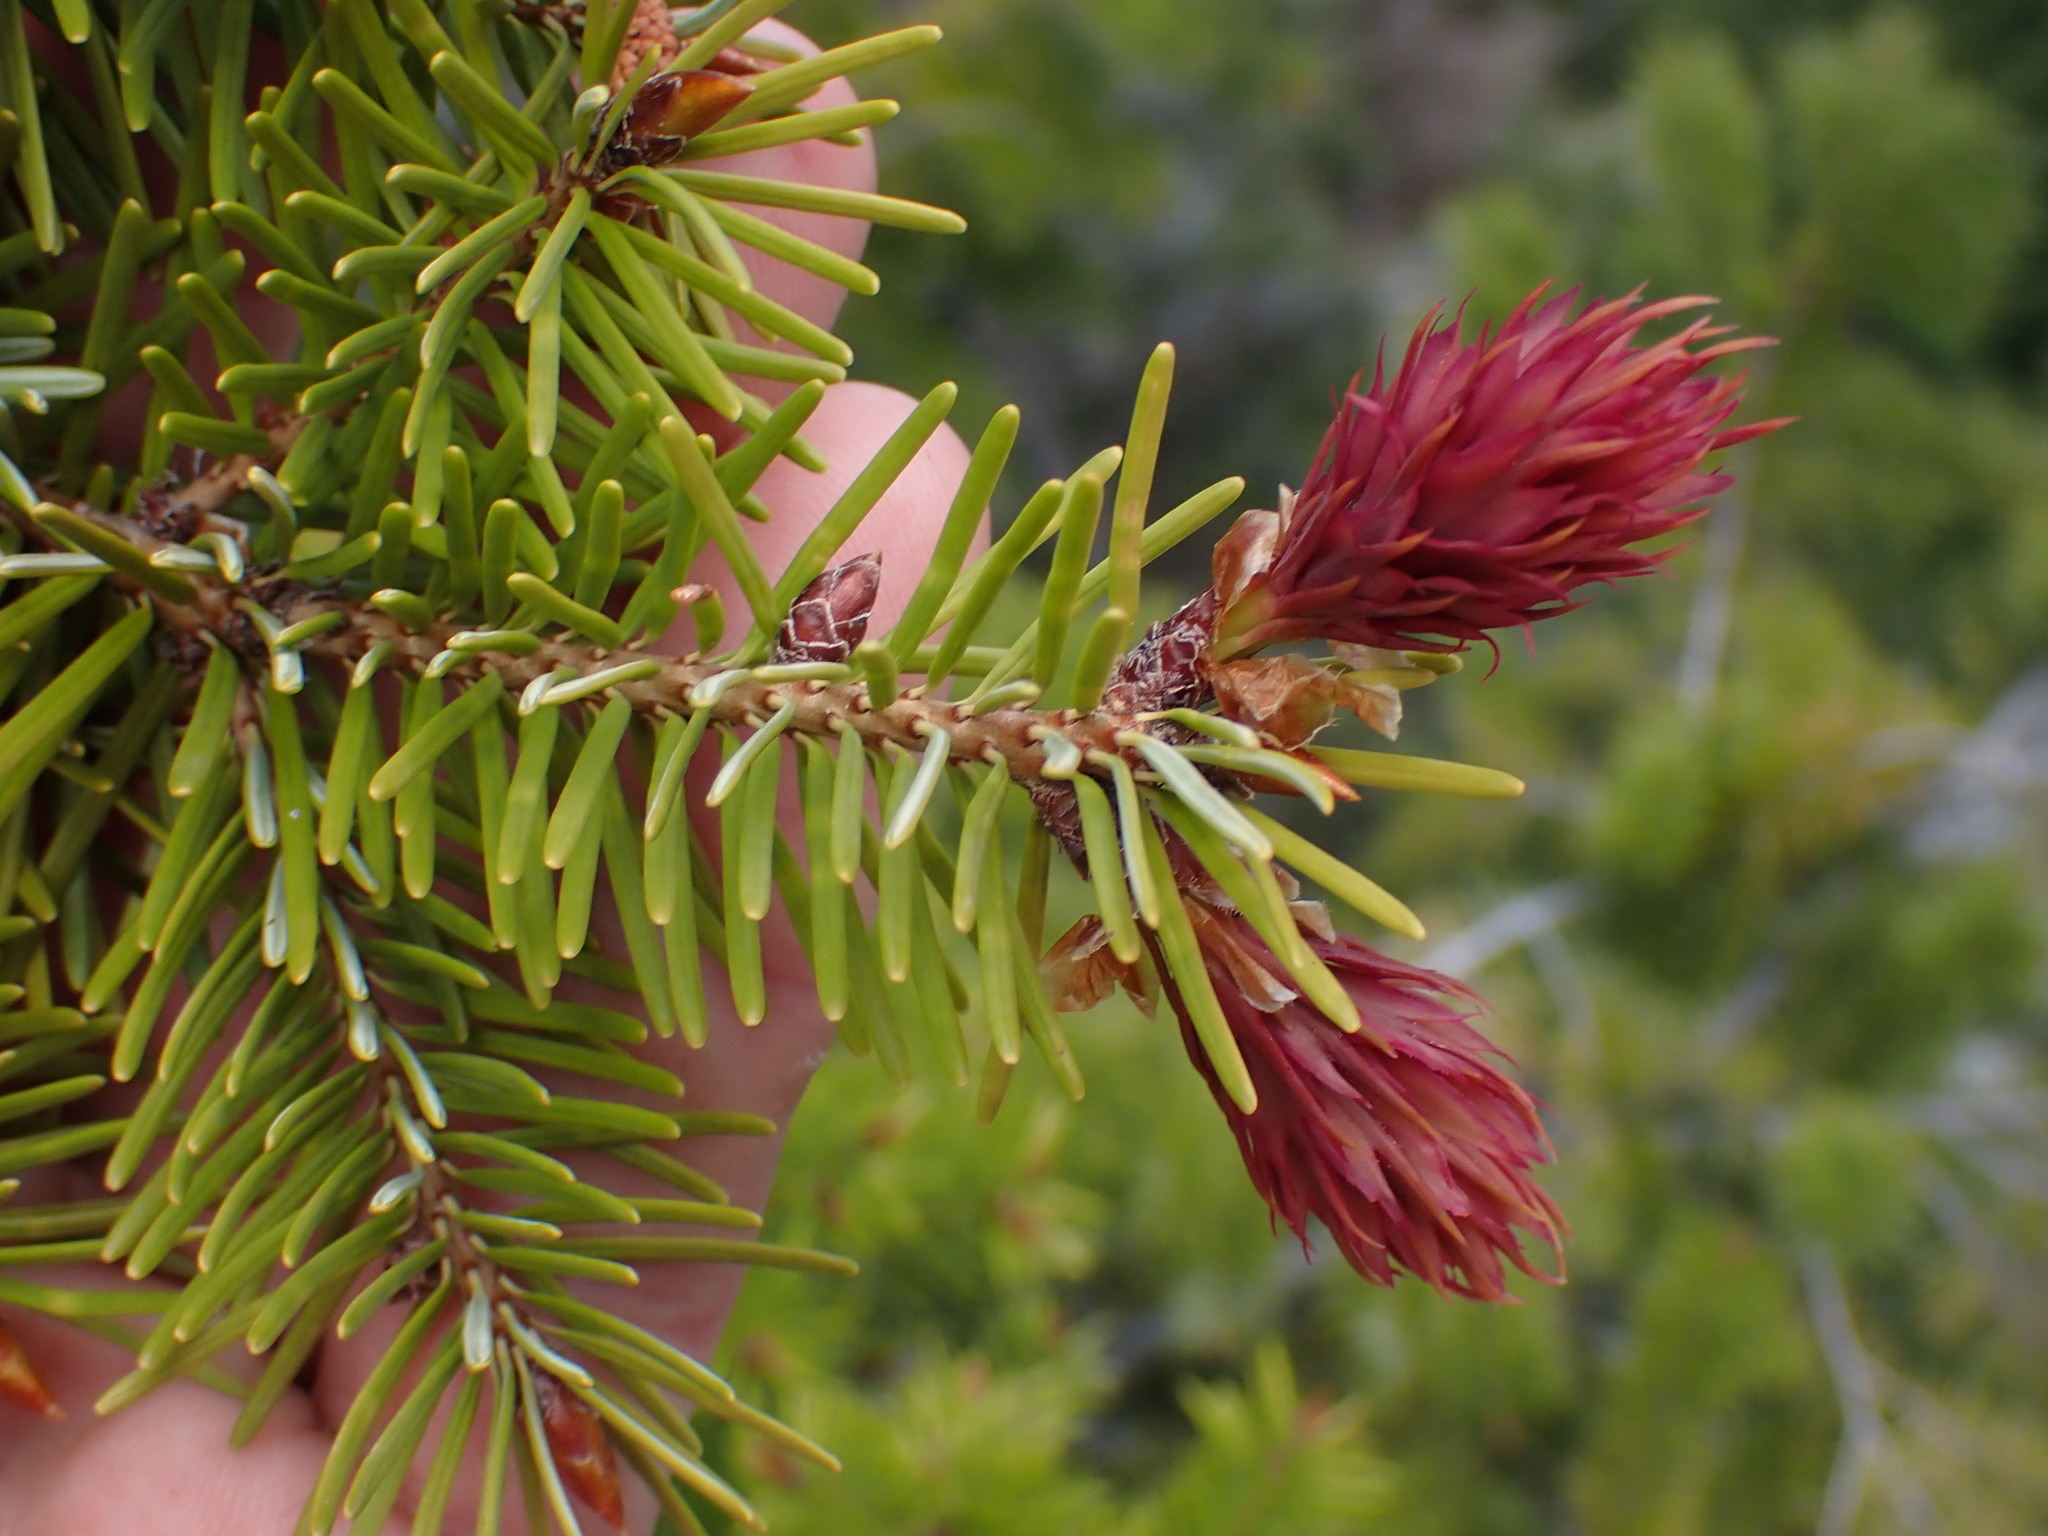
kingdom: Plantae
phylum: Tracheophyta
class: Pinopsida
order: Pinales
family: Pinaceae
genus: Pseudotsuga
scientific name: Pseudotsuga menziesii
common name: Douglas fir
